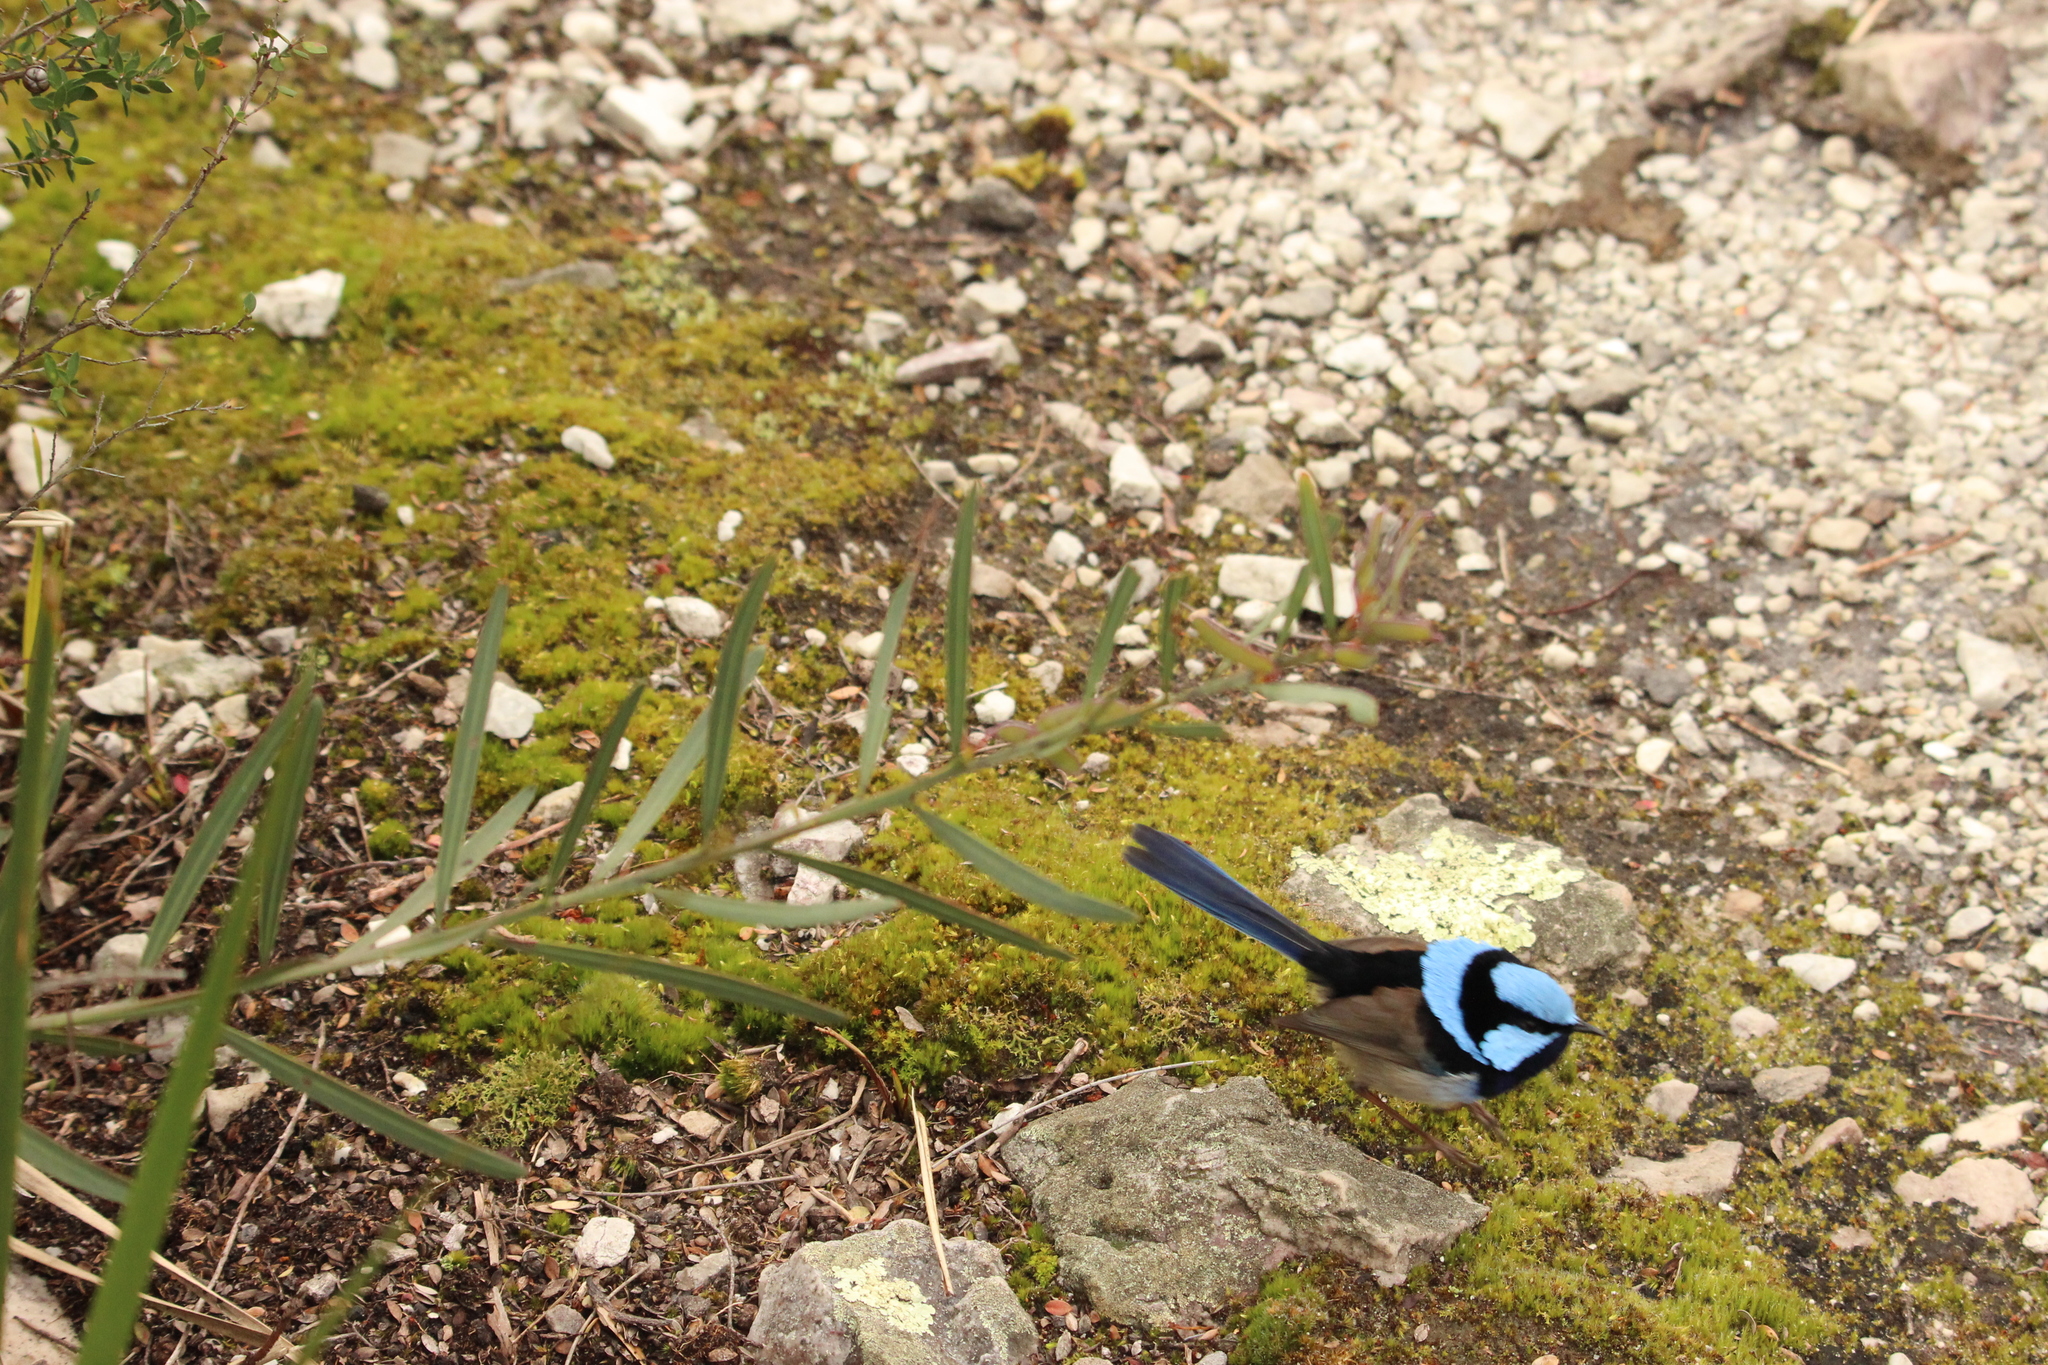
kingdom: Animalia
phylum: Chordata
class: Aves
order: Passeriformes
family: Maluridae
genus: Malurus
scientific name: Malurus cyaneus
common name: Superb fairywren
